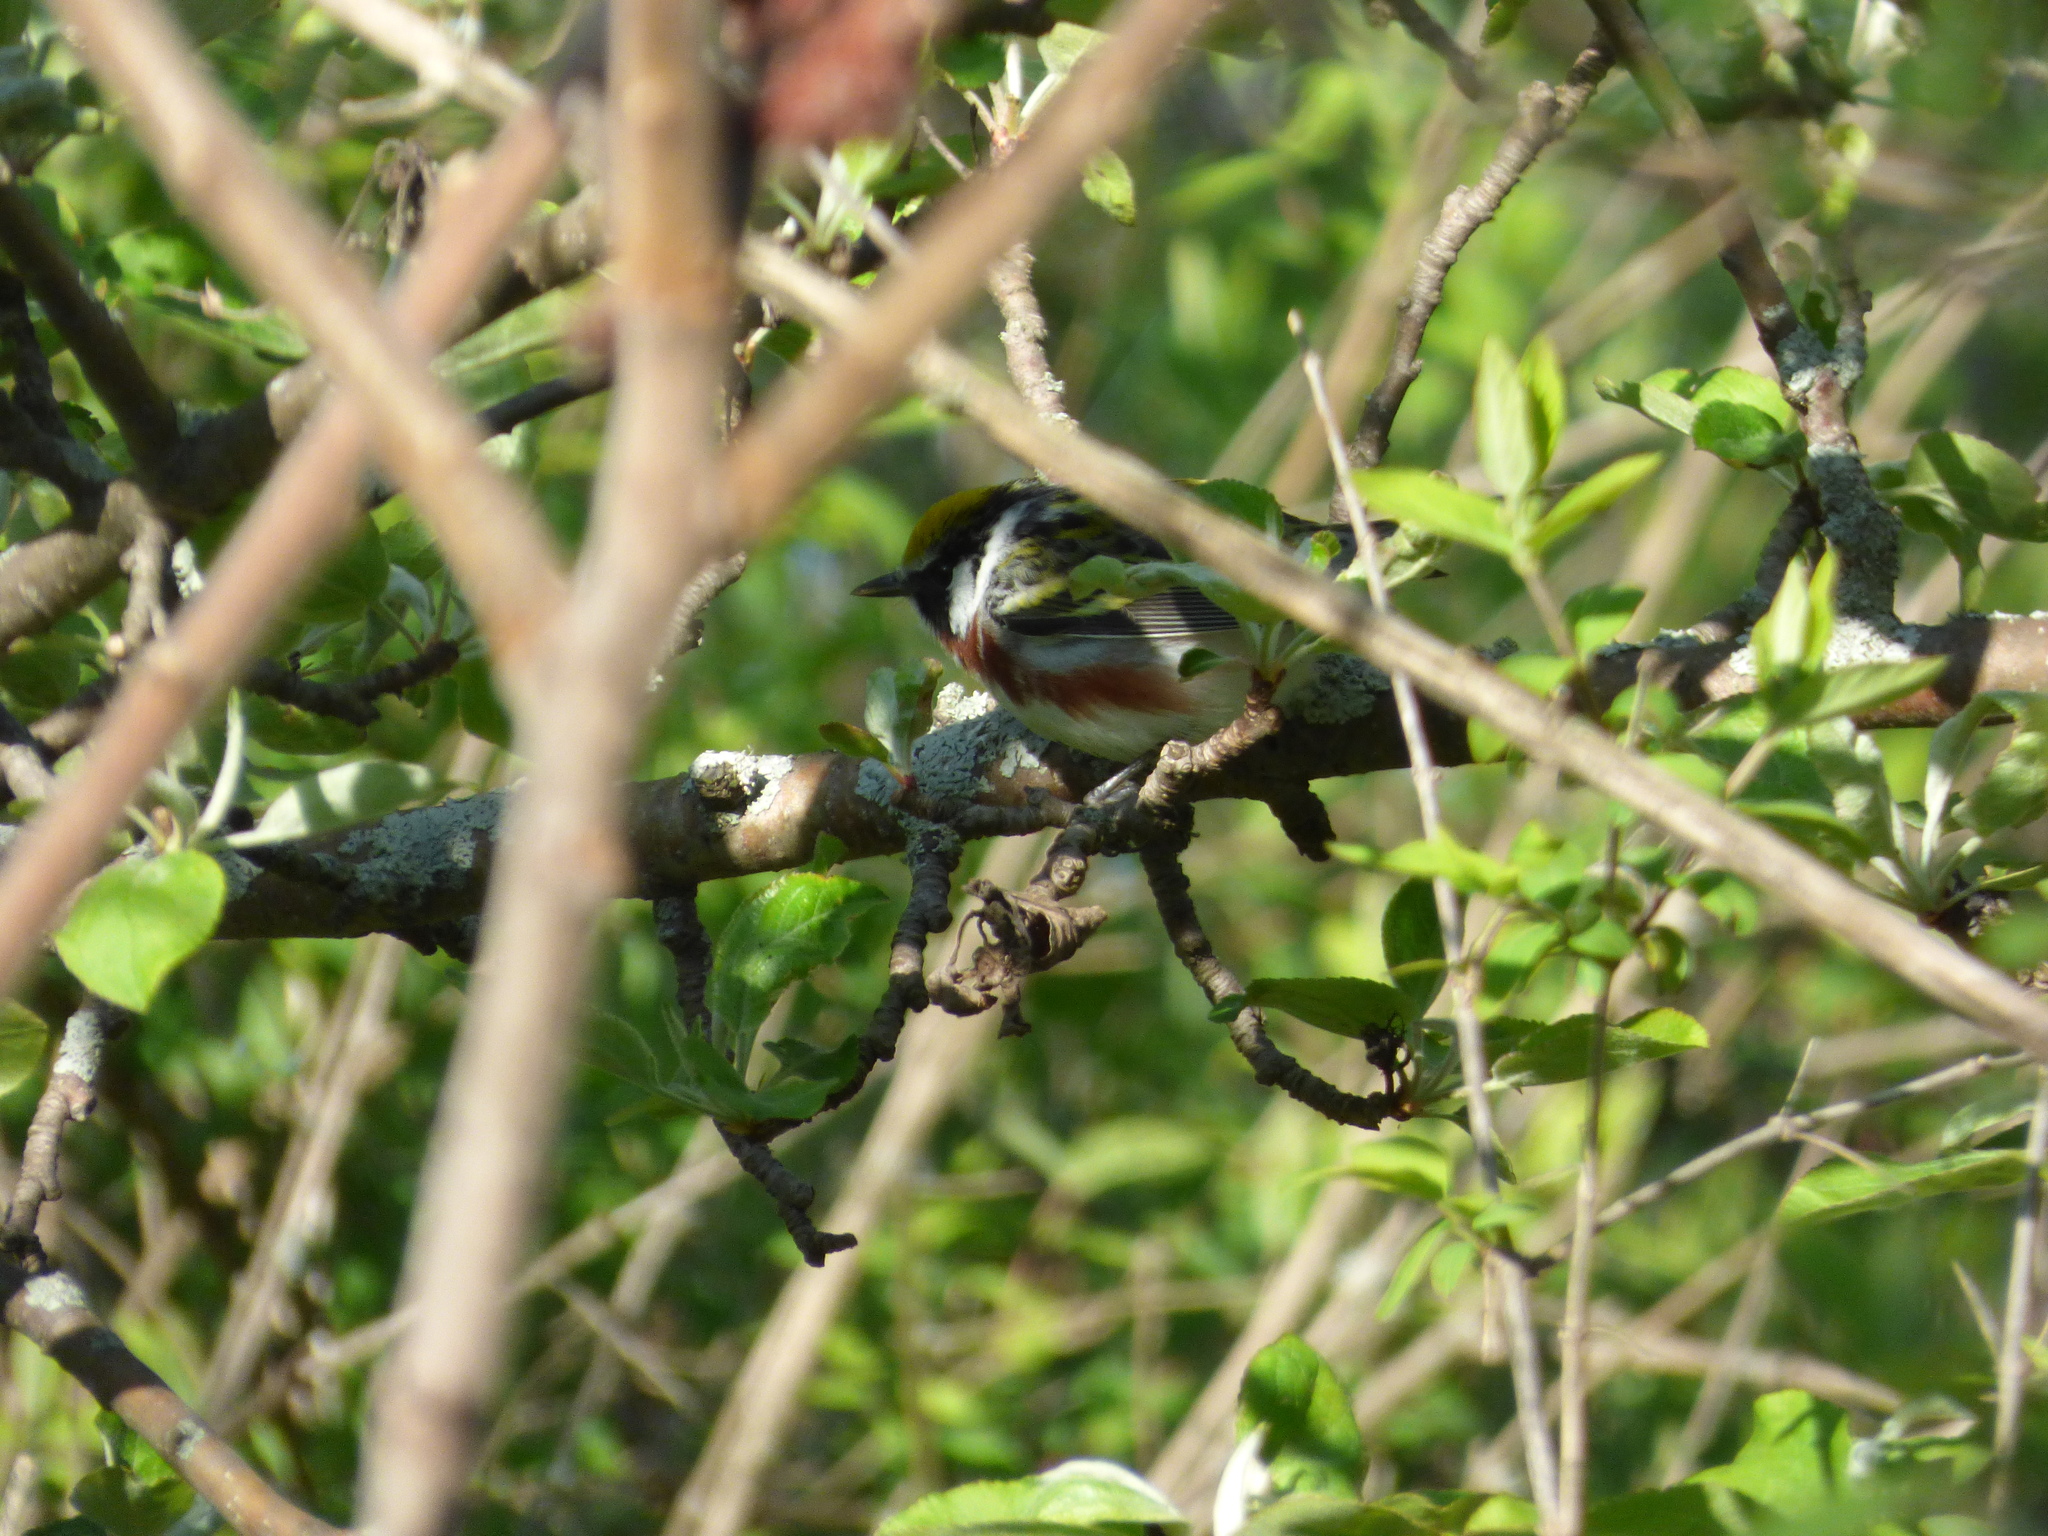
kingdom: Animalia
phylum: Chordata
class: Aves
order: Passeriformes
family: Parulidae
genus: Setophaga
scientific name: Setophaga pensylvanica
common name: Chestnut-sided warbler
